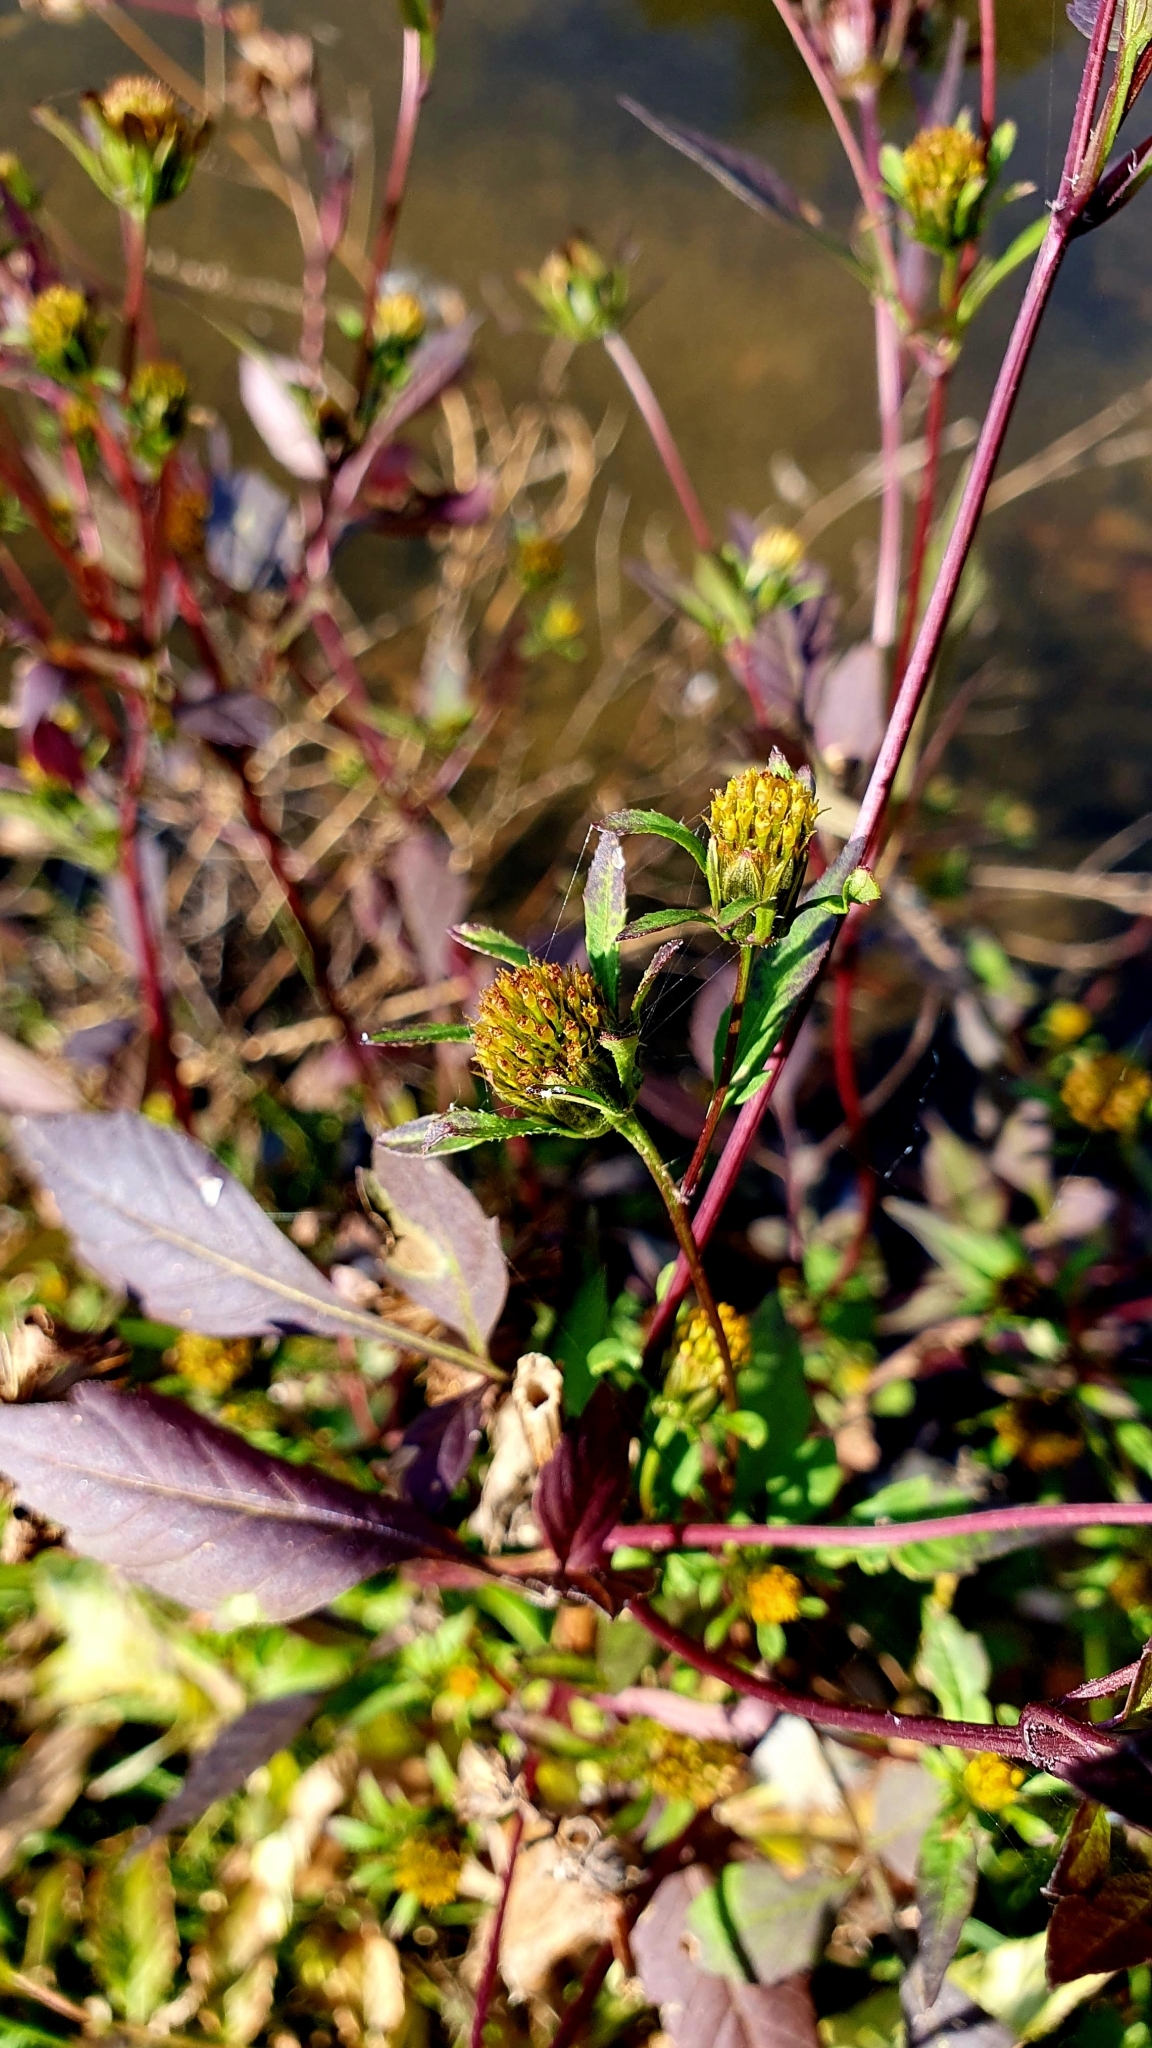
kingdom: Plantae
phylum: Tracheophyta
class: Magnoliopsida
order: Asterales
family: Asteraceae
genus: Bidens
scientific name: Bidens frondosa
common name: Beggarticks
